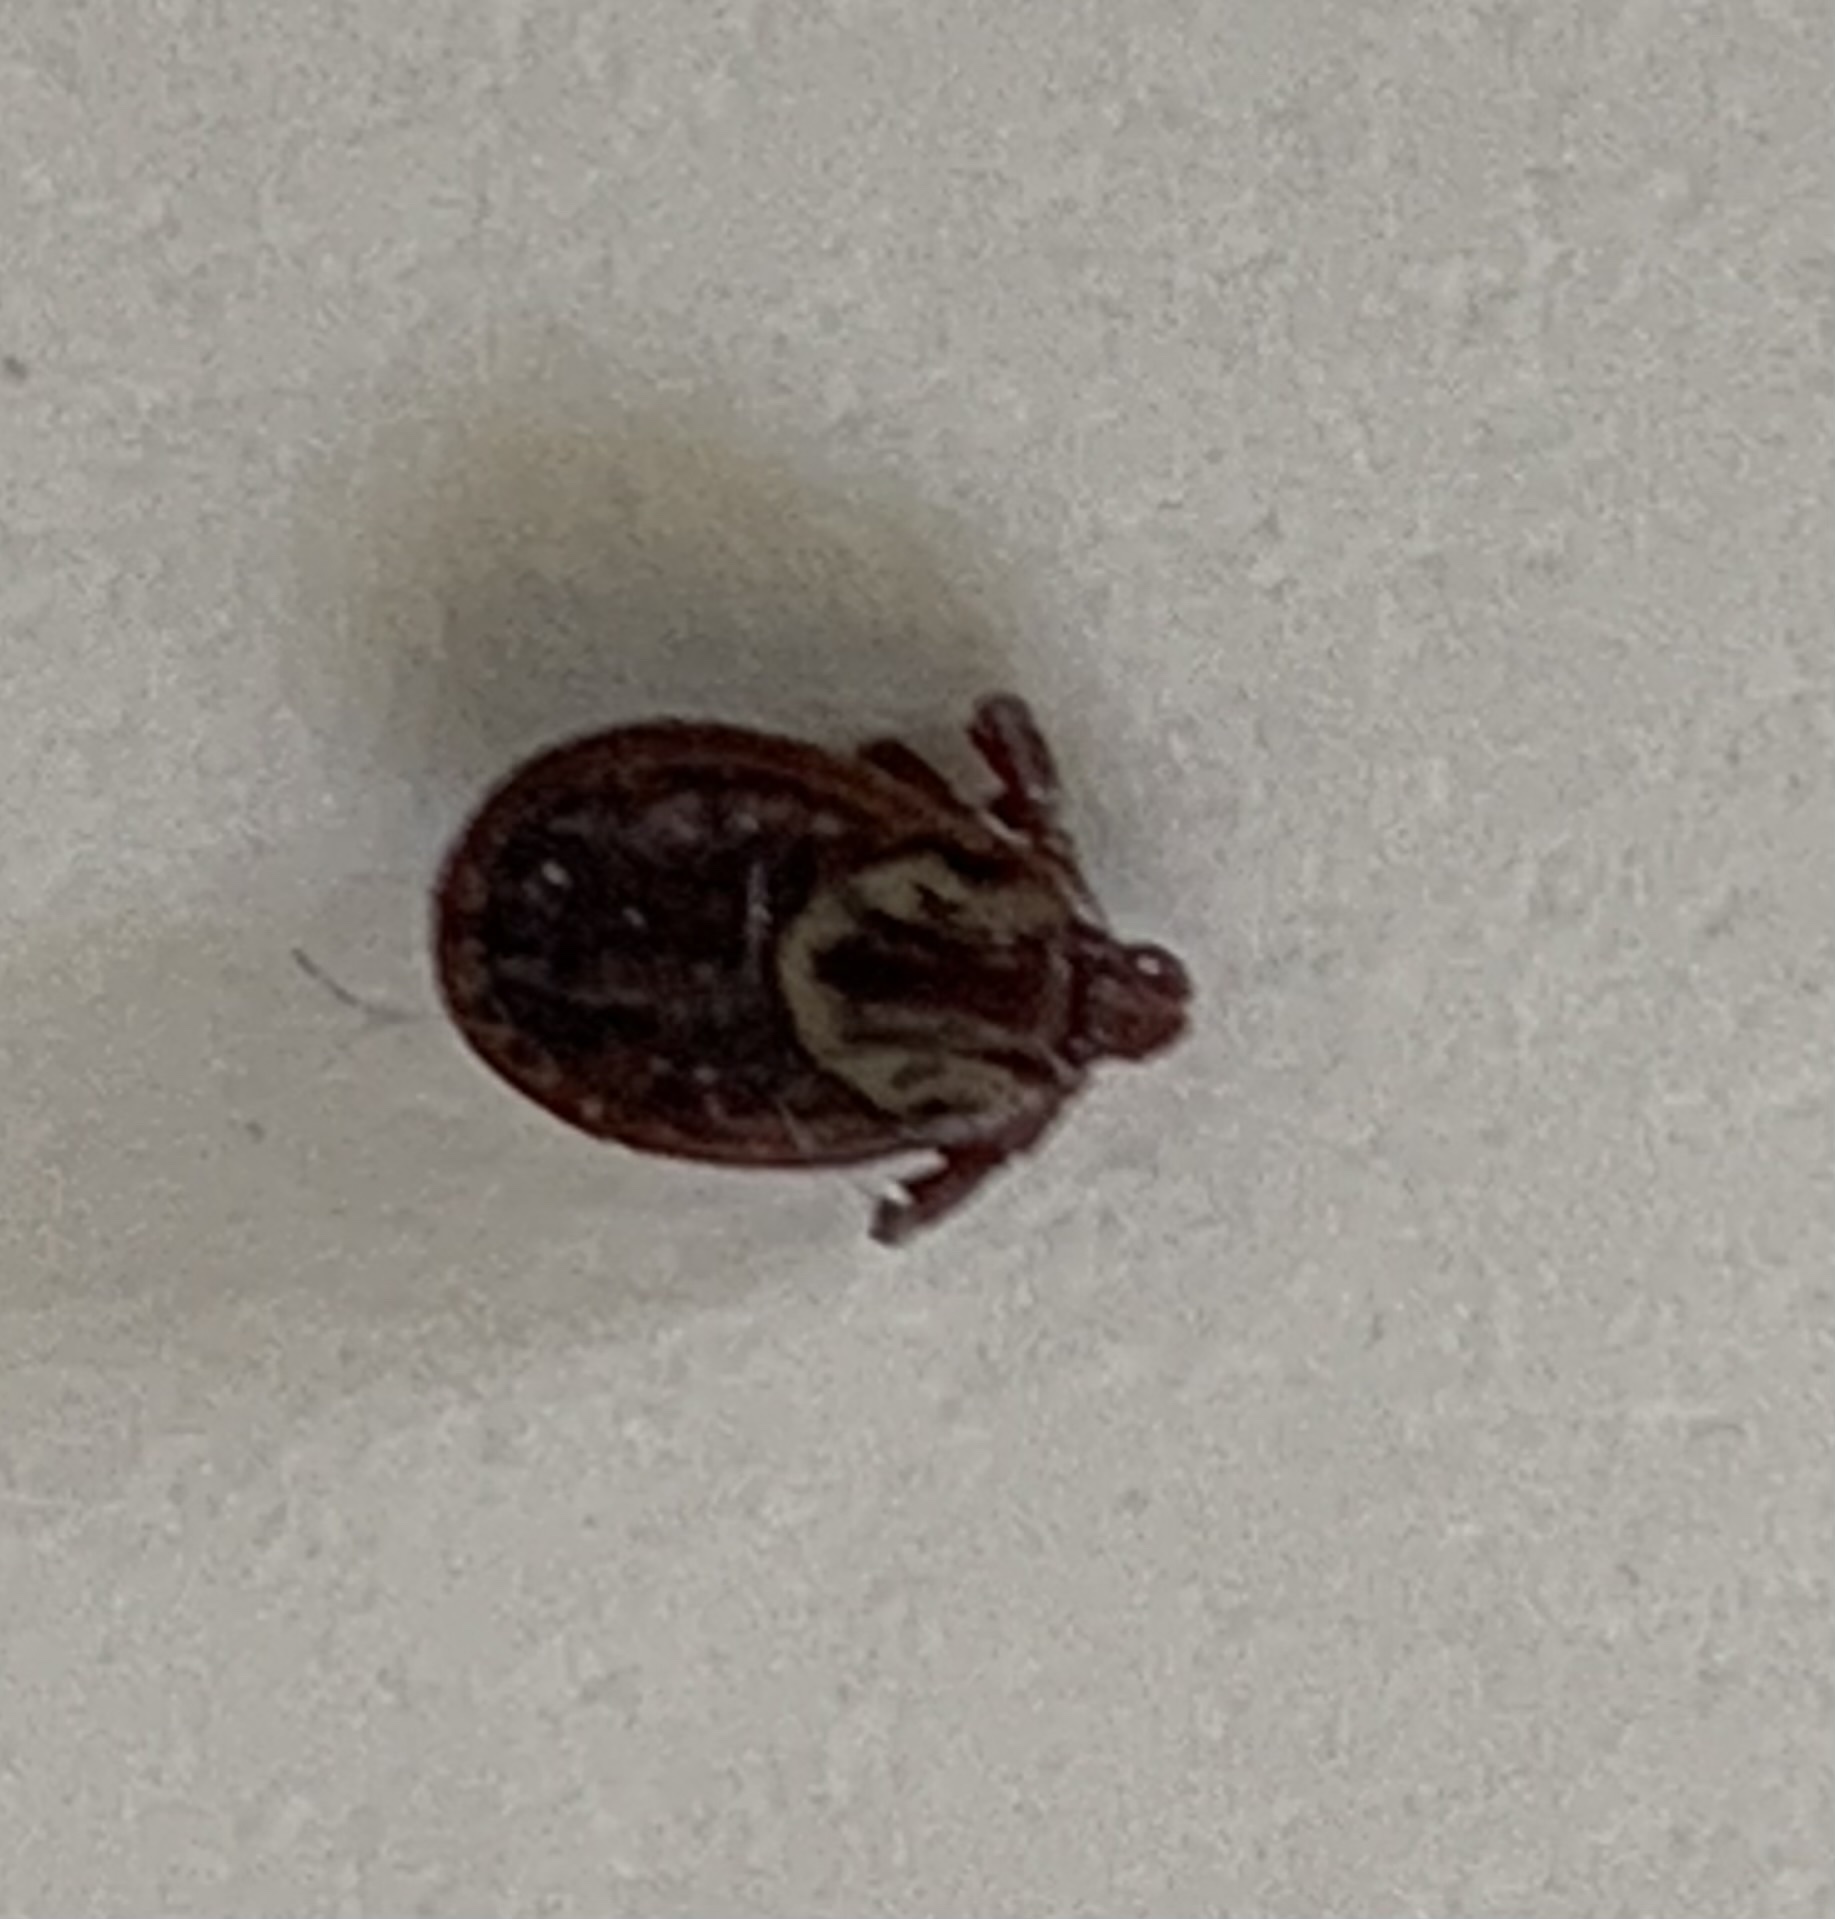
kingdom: Animalia
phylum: Arthropoda
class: Arachnida
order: Ixodida
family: Ixodidae
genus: Dermacentor
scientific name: Dermacentor variabilis
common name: American dog tick
